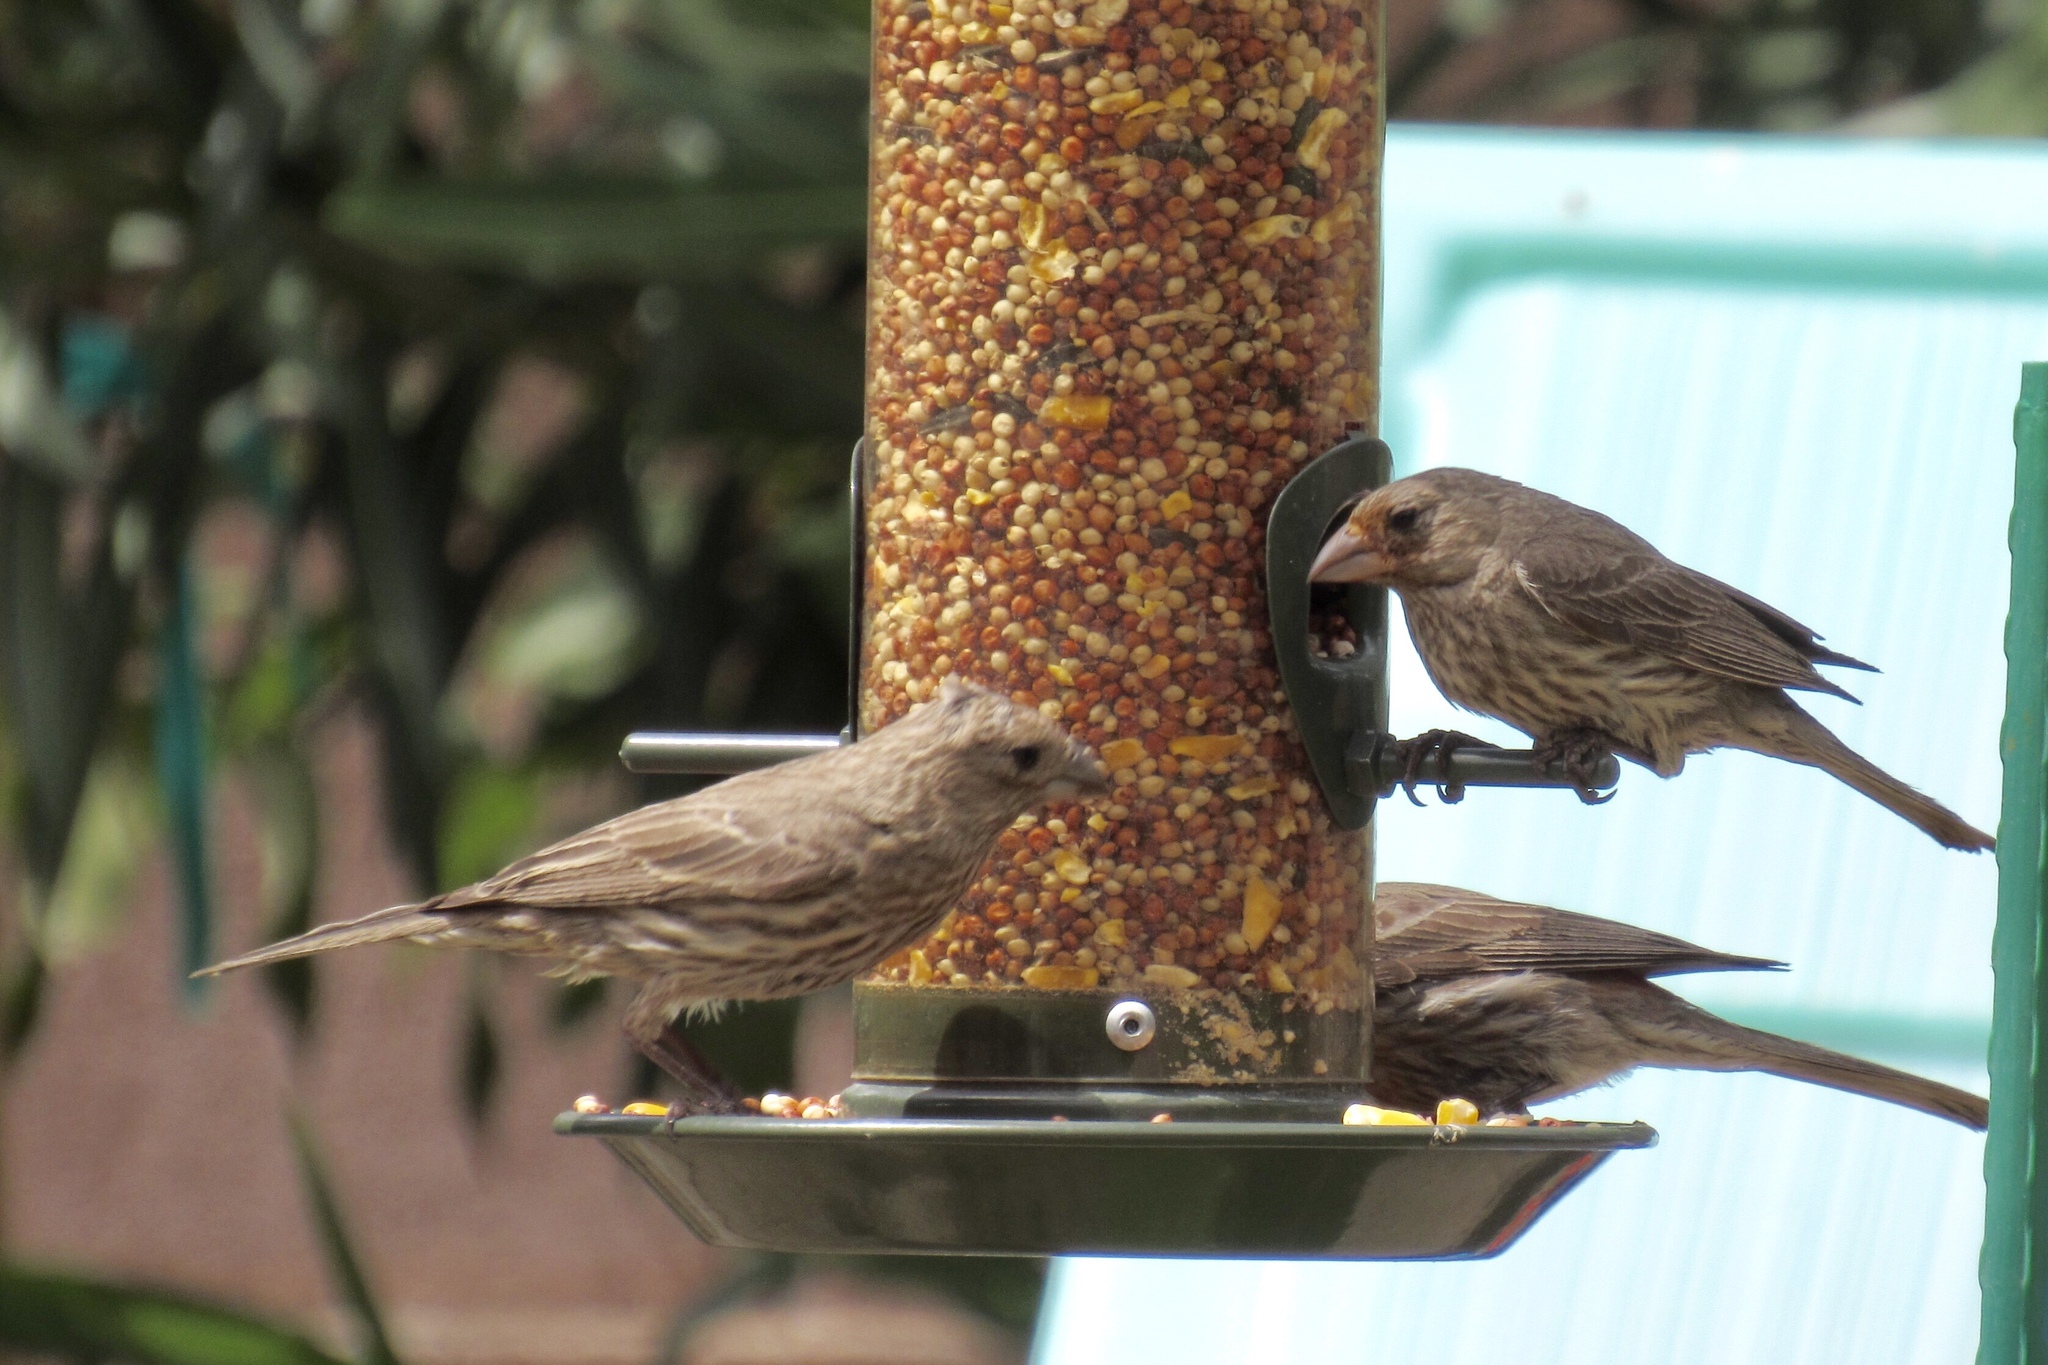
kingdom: Animalia
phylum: Chordata
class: Aves
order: Passeriformes
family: Fringillidae
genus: Haemorhous
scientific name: Haemorhous mexicanus
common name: House finch
